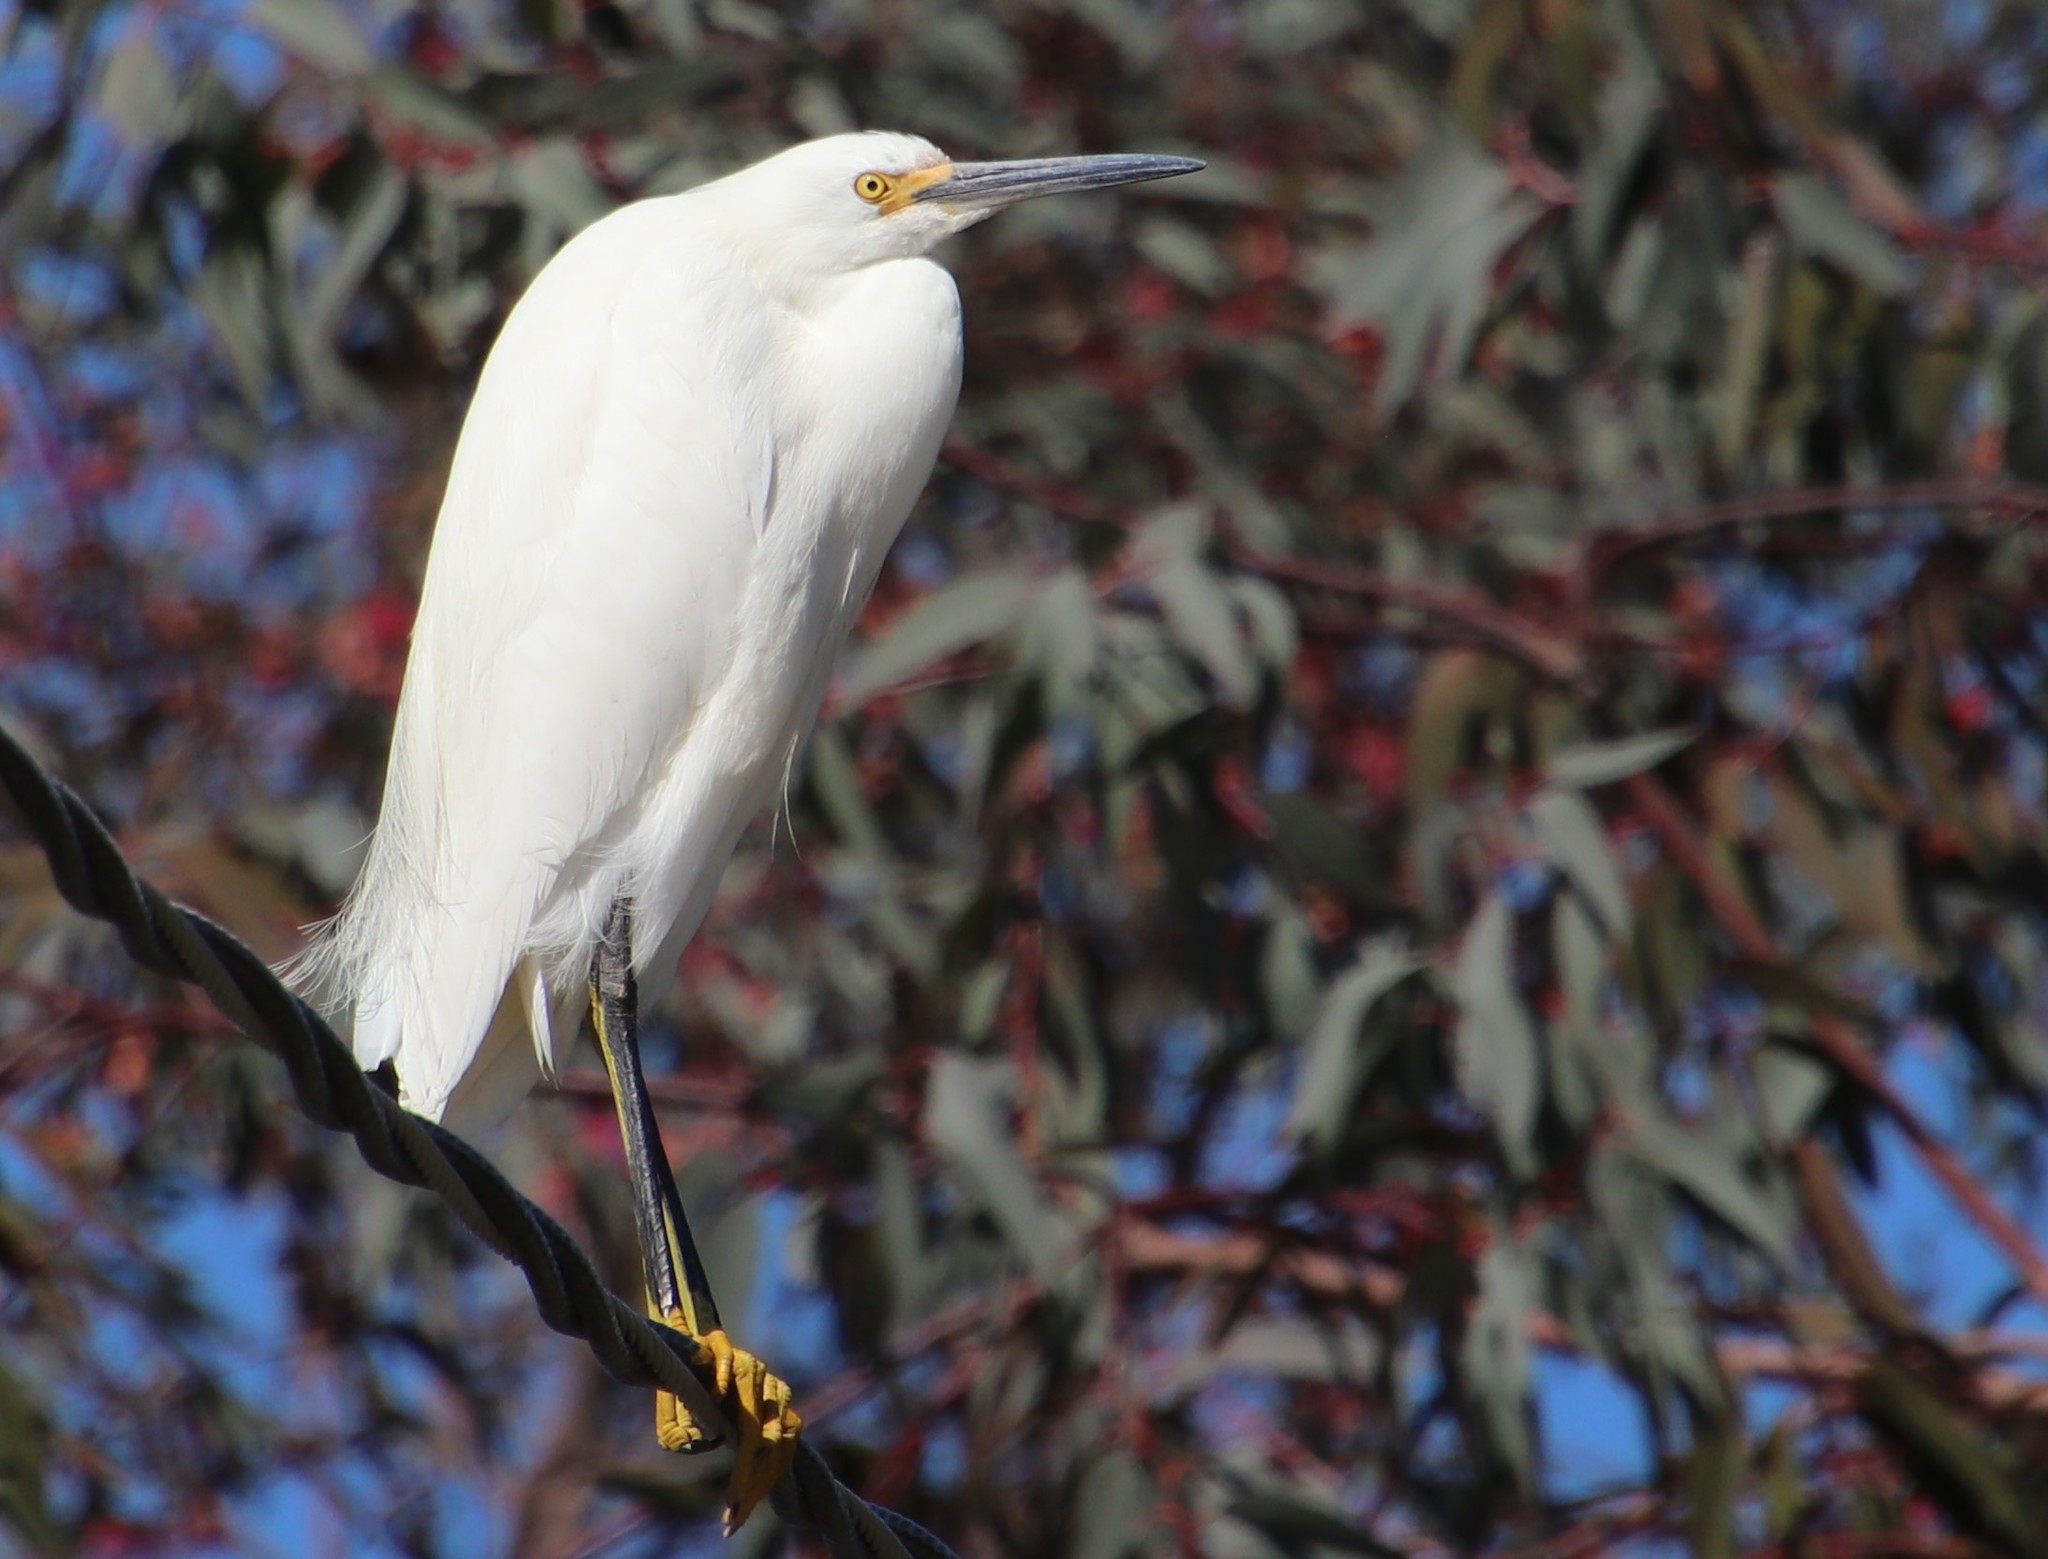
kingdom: Animalia
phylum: Chordata
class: Aves
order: Pelecaniformes
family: Ardeidae
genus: Egretta
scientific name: Egretta thula
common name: Snowy egret
